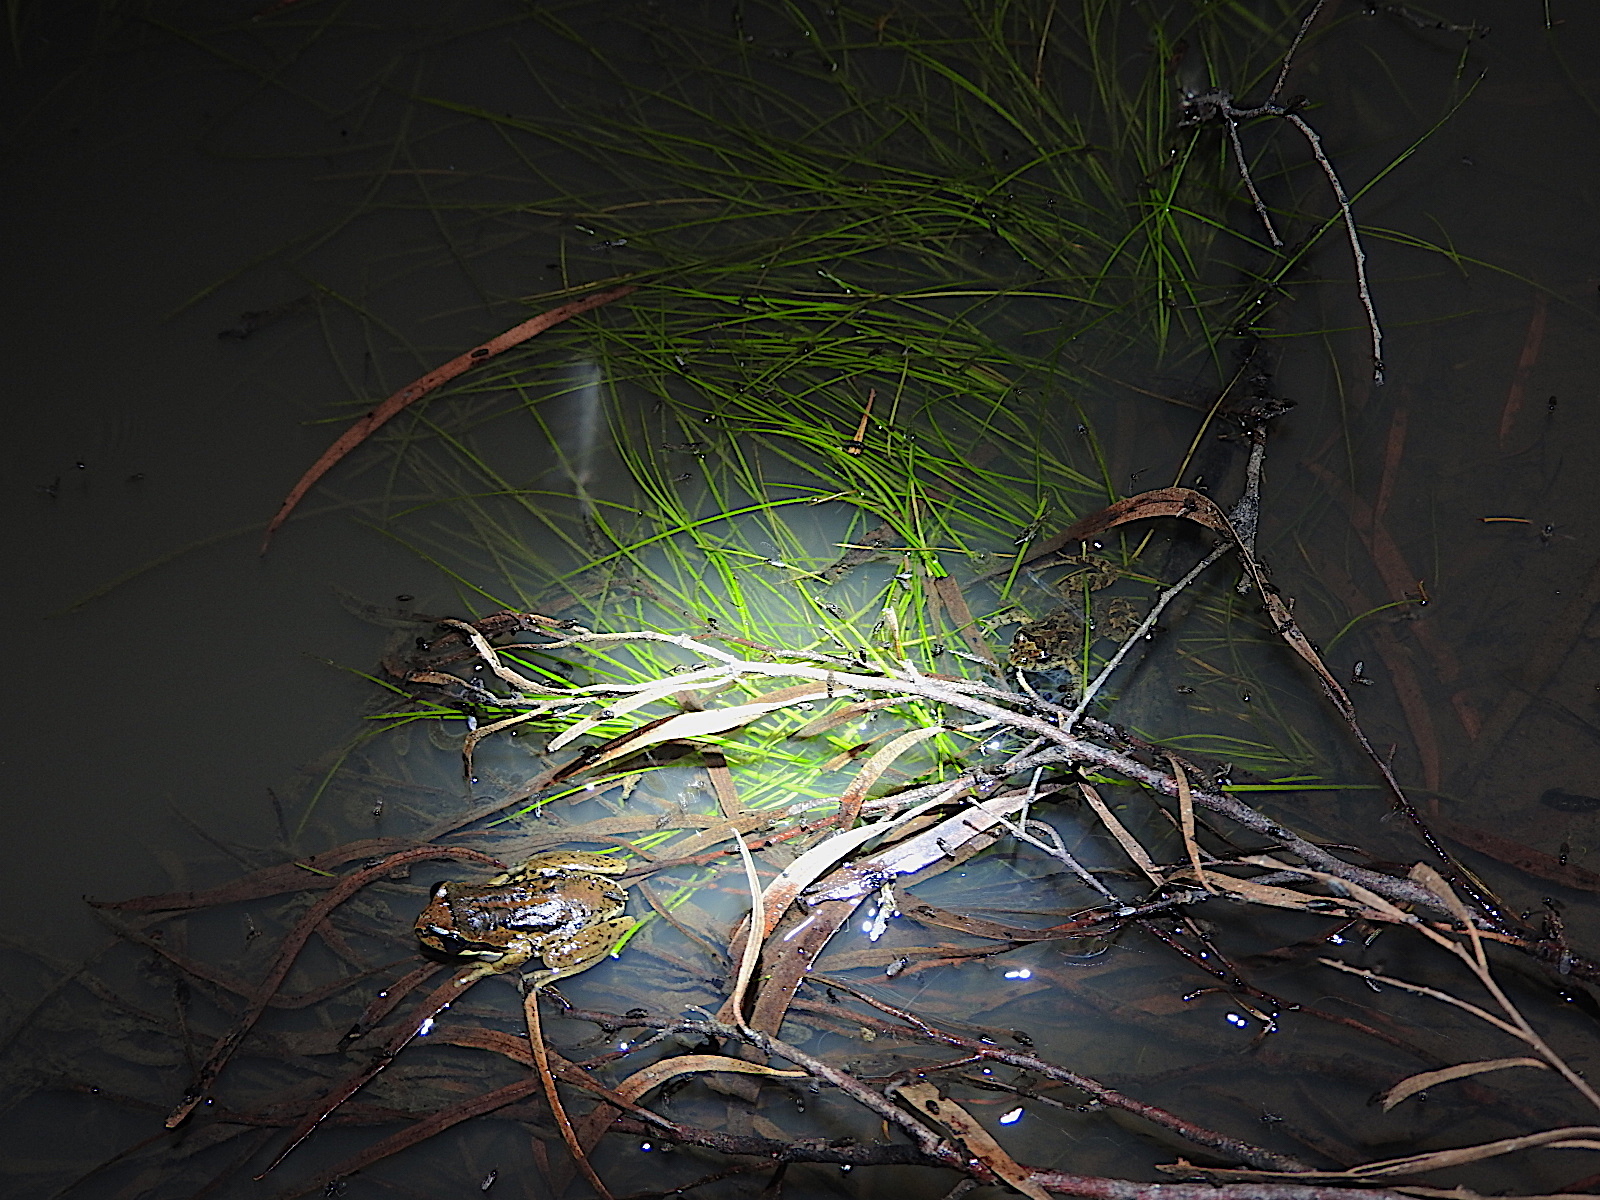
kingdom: Animalia
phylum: Chordata
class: Amphibia
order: Anura
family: Pelodryadidae
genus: Litoria
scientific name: Litoria ewingii
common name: Southern brown tree frog
